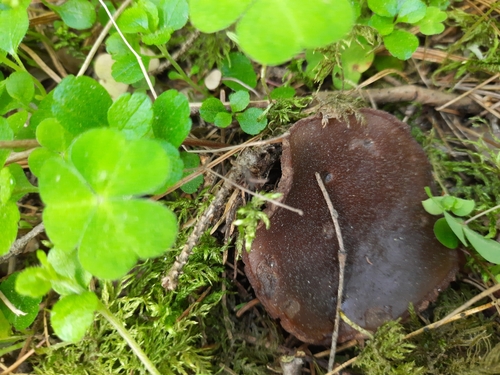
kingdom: Fungi
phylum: Ascomycota
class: Pezizomycetes
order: Pezizales
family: Sarcosomataceae
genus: Sarcosoma
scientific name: Sarcosoma globosum
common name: Charred-pancake cup
